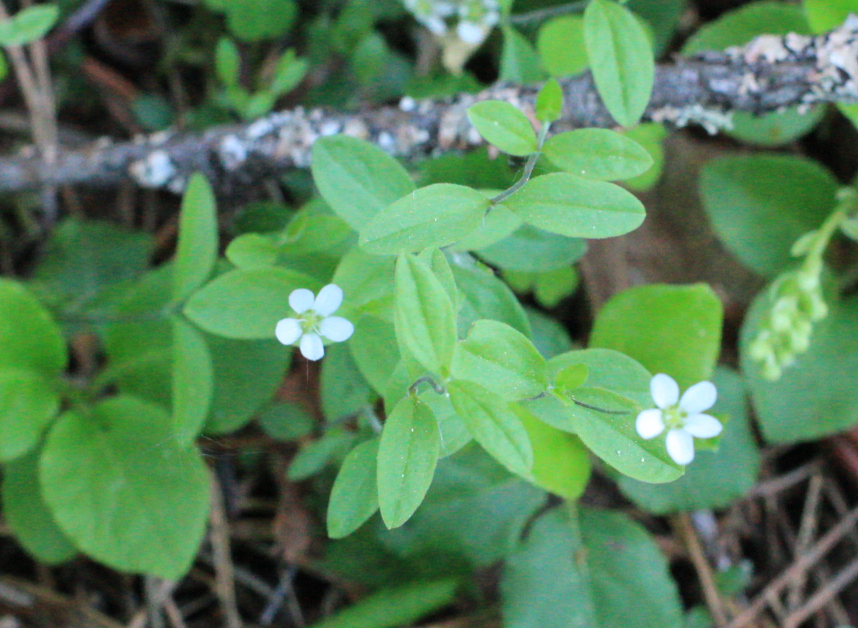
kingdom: Plantae
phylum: Tracheophyta
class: Magnoliopsida
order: Caryophyllales
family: Caryophyllaceae
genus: Moehringia
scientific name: Moehringia lateriflora
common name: Blunt-leaved sandwort
